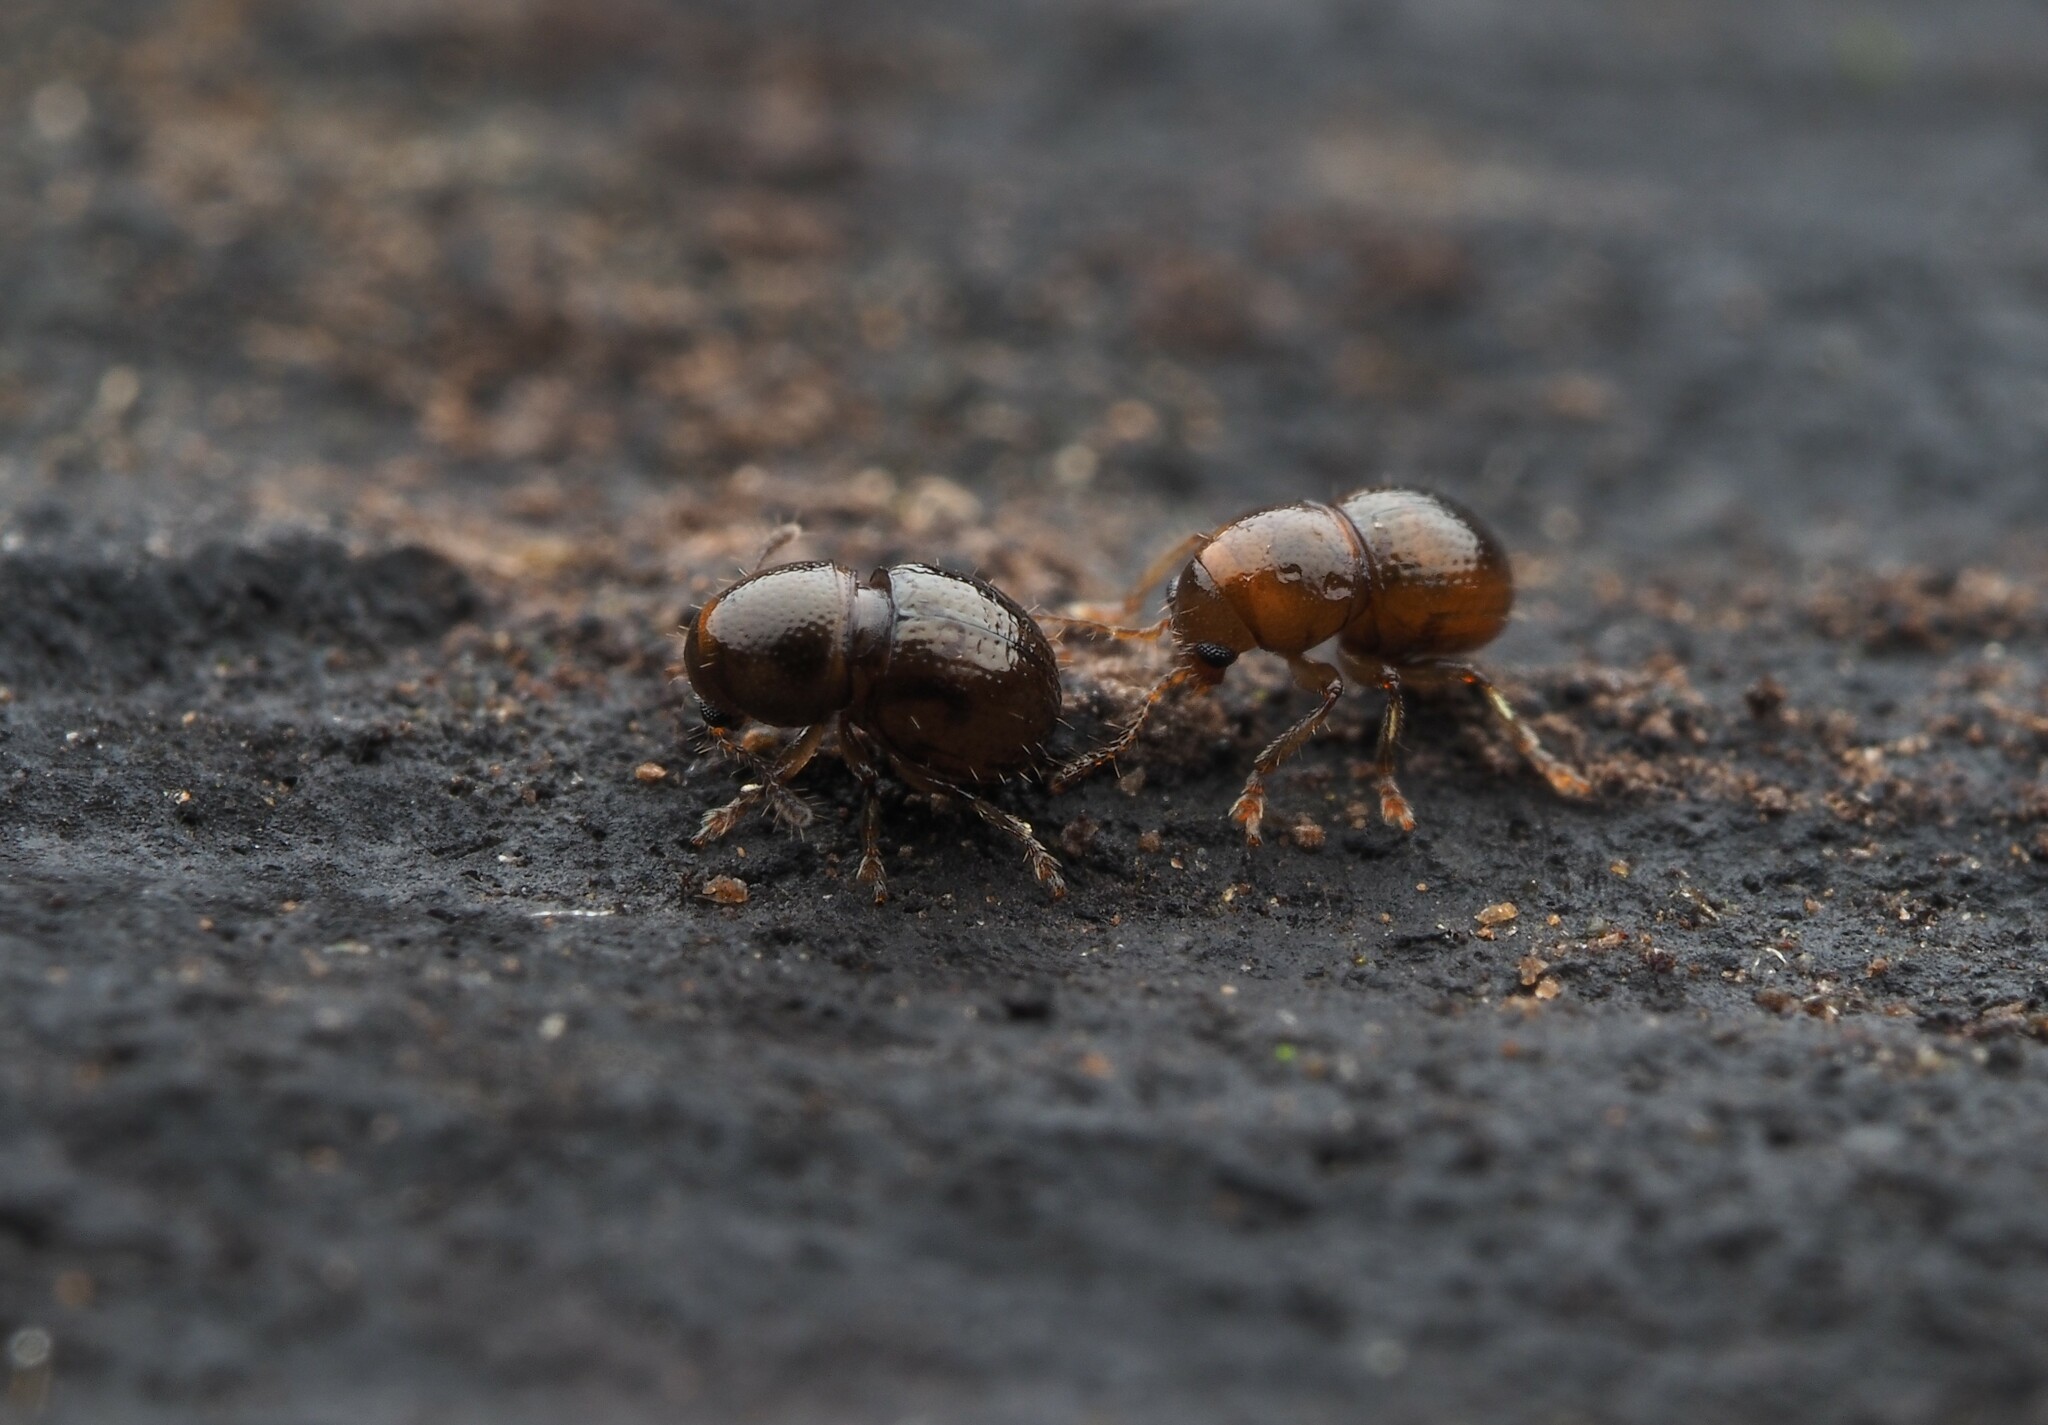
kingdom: Animalia
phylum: Arthropoda
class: Insecta
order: Coleoptera
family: Anthribidae
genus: Dysnocryptus
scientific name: Dysnocryptus inflatus
